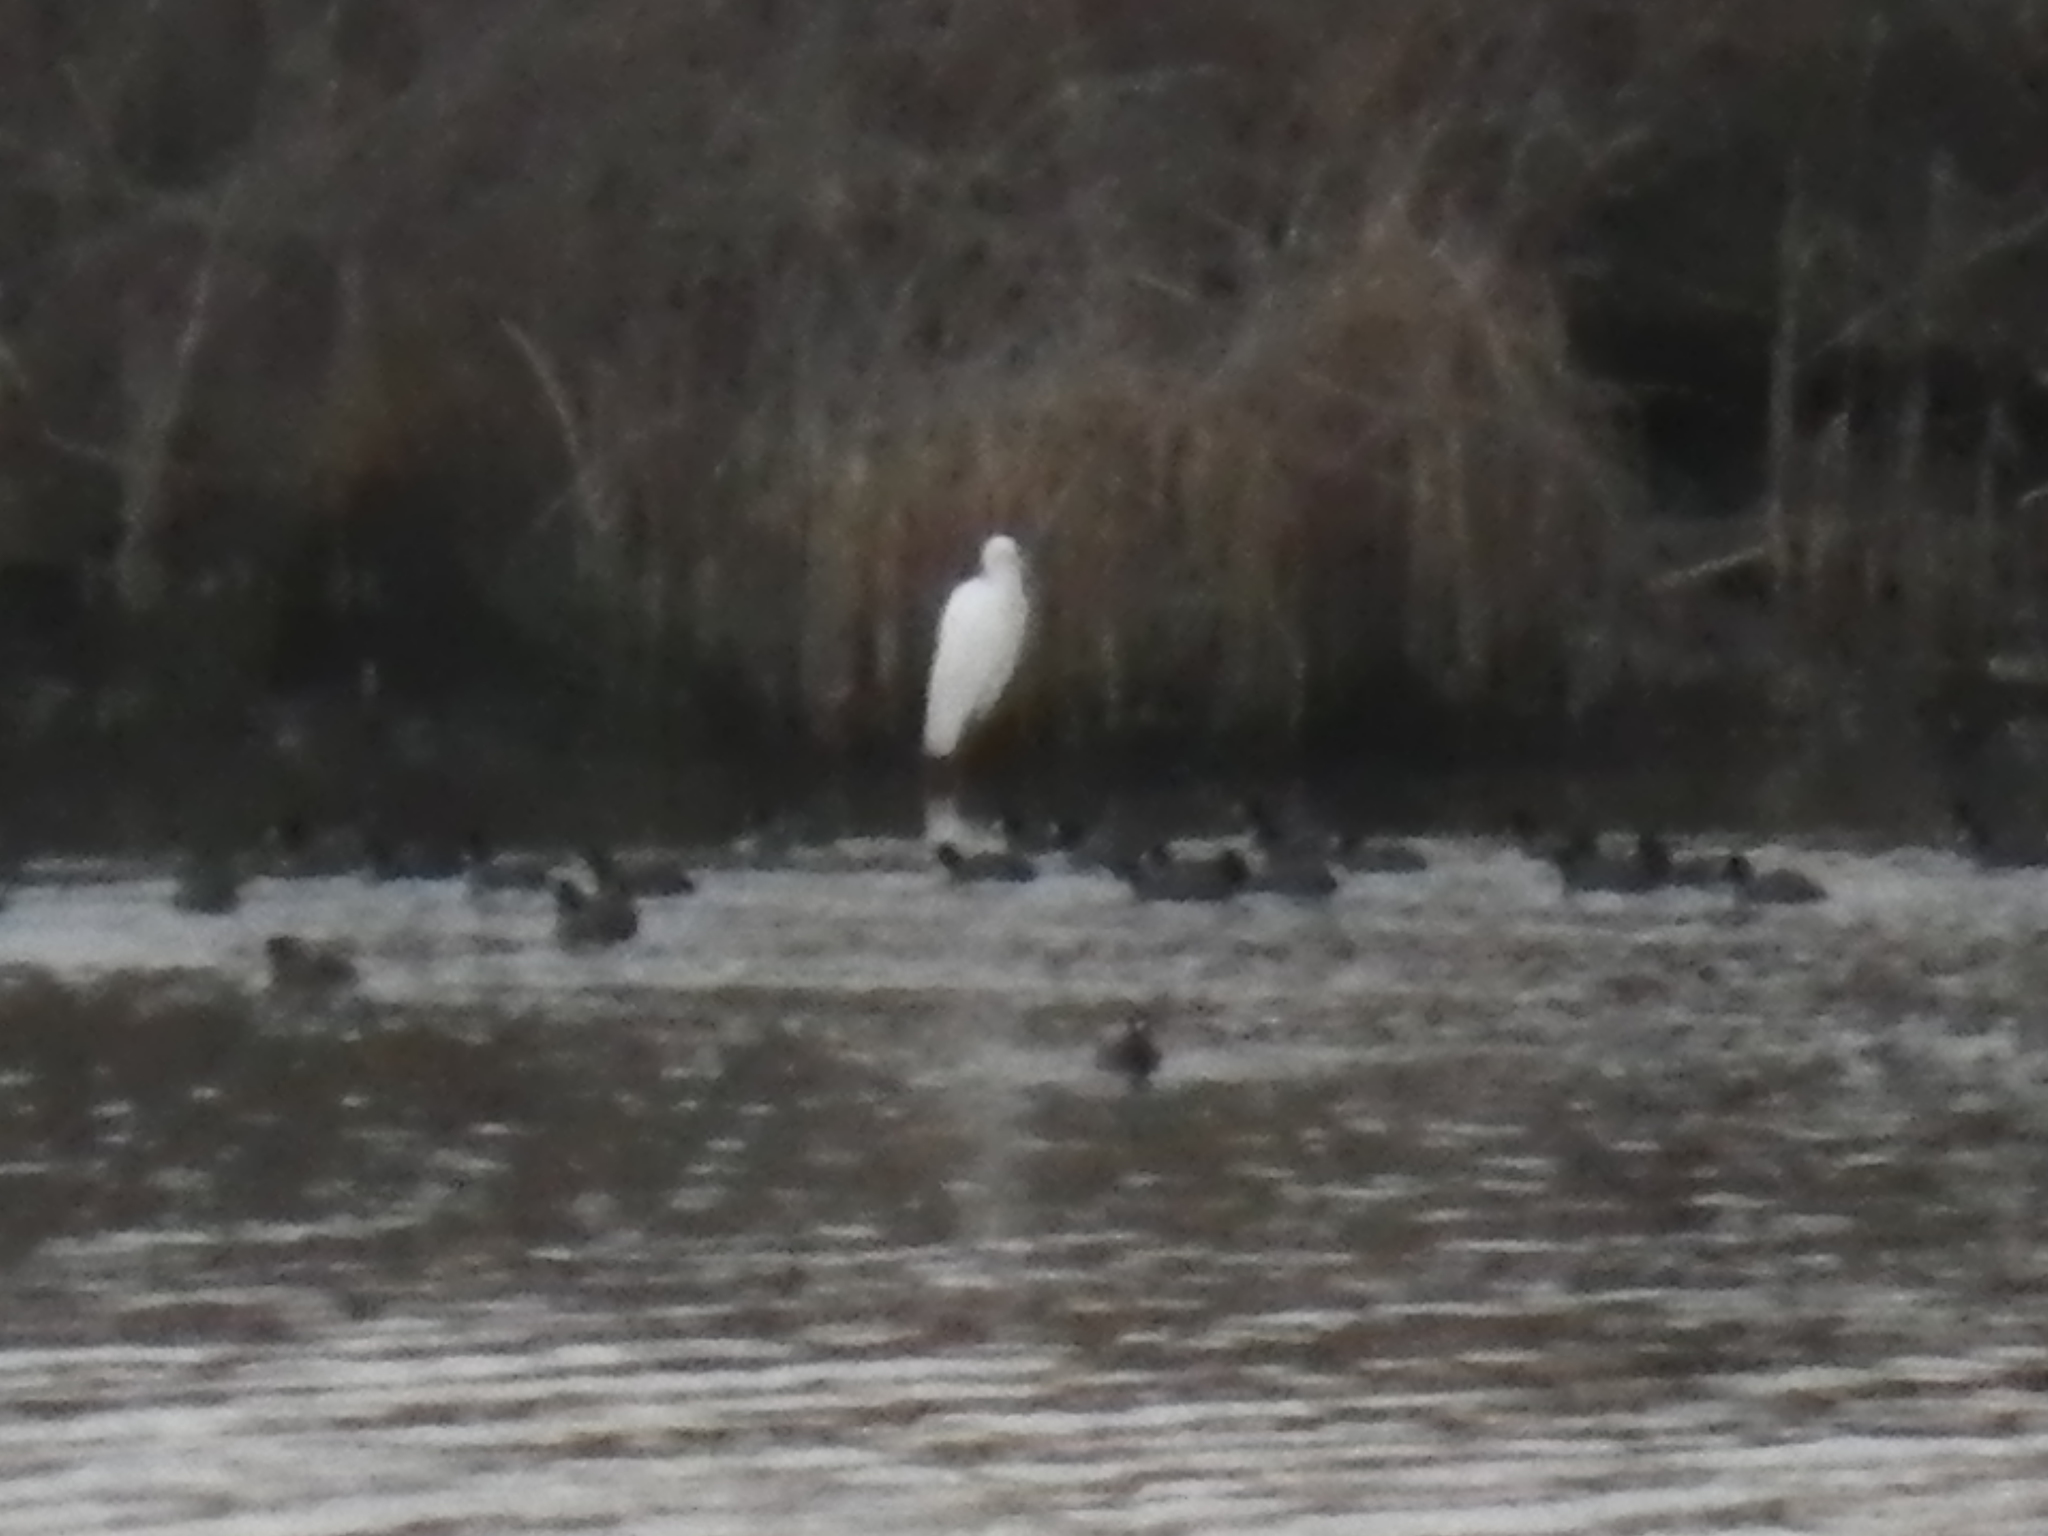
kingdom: Animalia
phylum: Chordata
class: Aves
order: Pelecaniformes
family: Ardeidae
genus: Ardea
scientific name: Ardea alba
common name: Great egret
